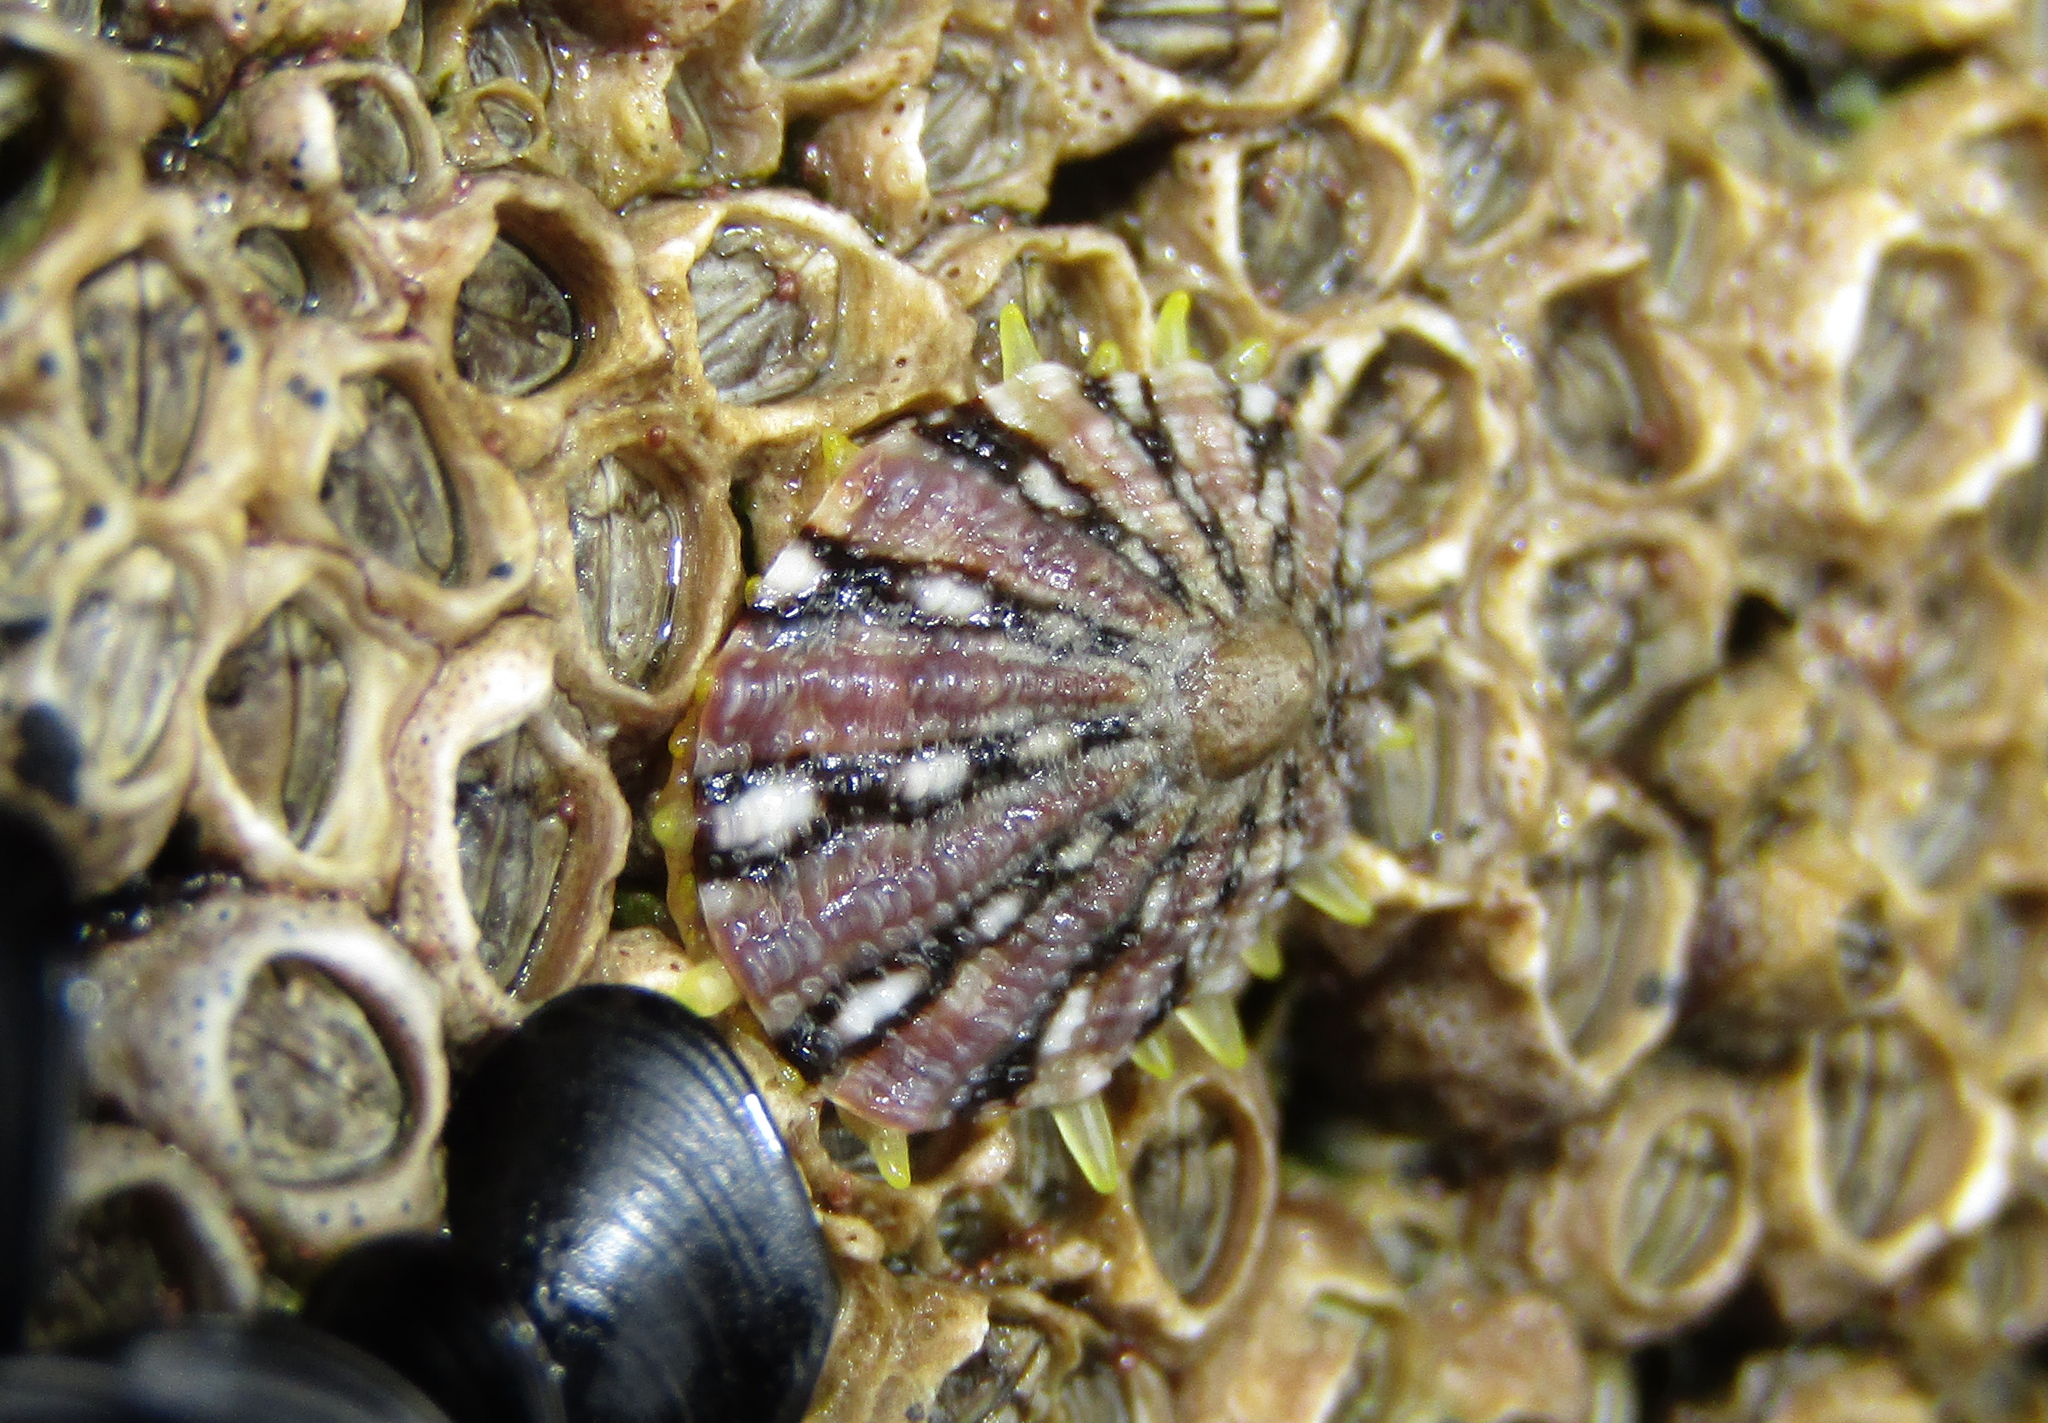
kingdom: Animalia
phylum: Mollusca
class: Gastropoda
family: Nacellidae
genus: Cellana
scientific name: Cellana ornata
